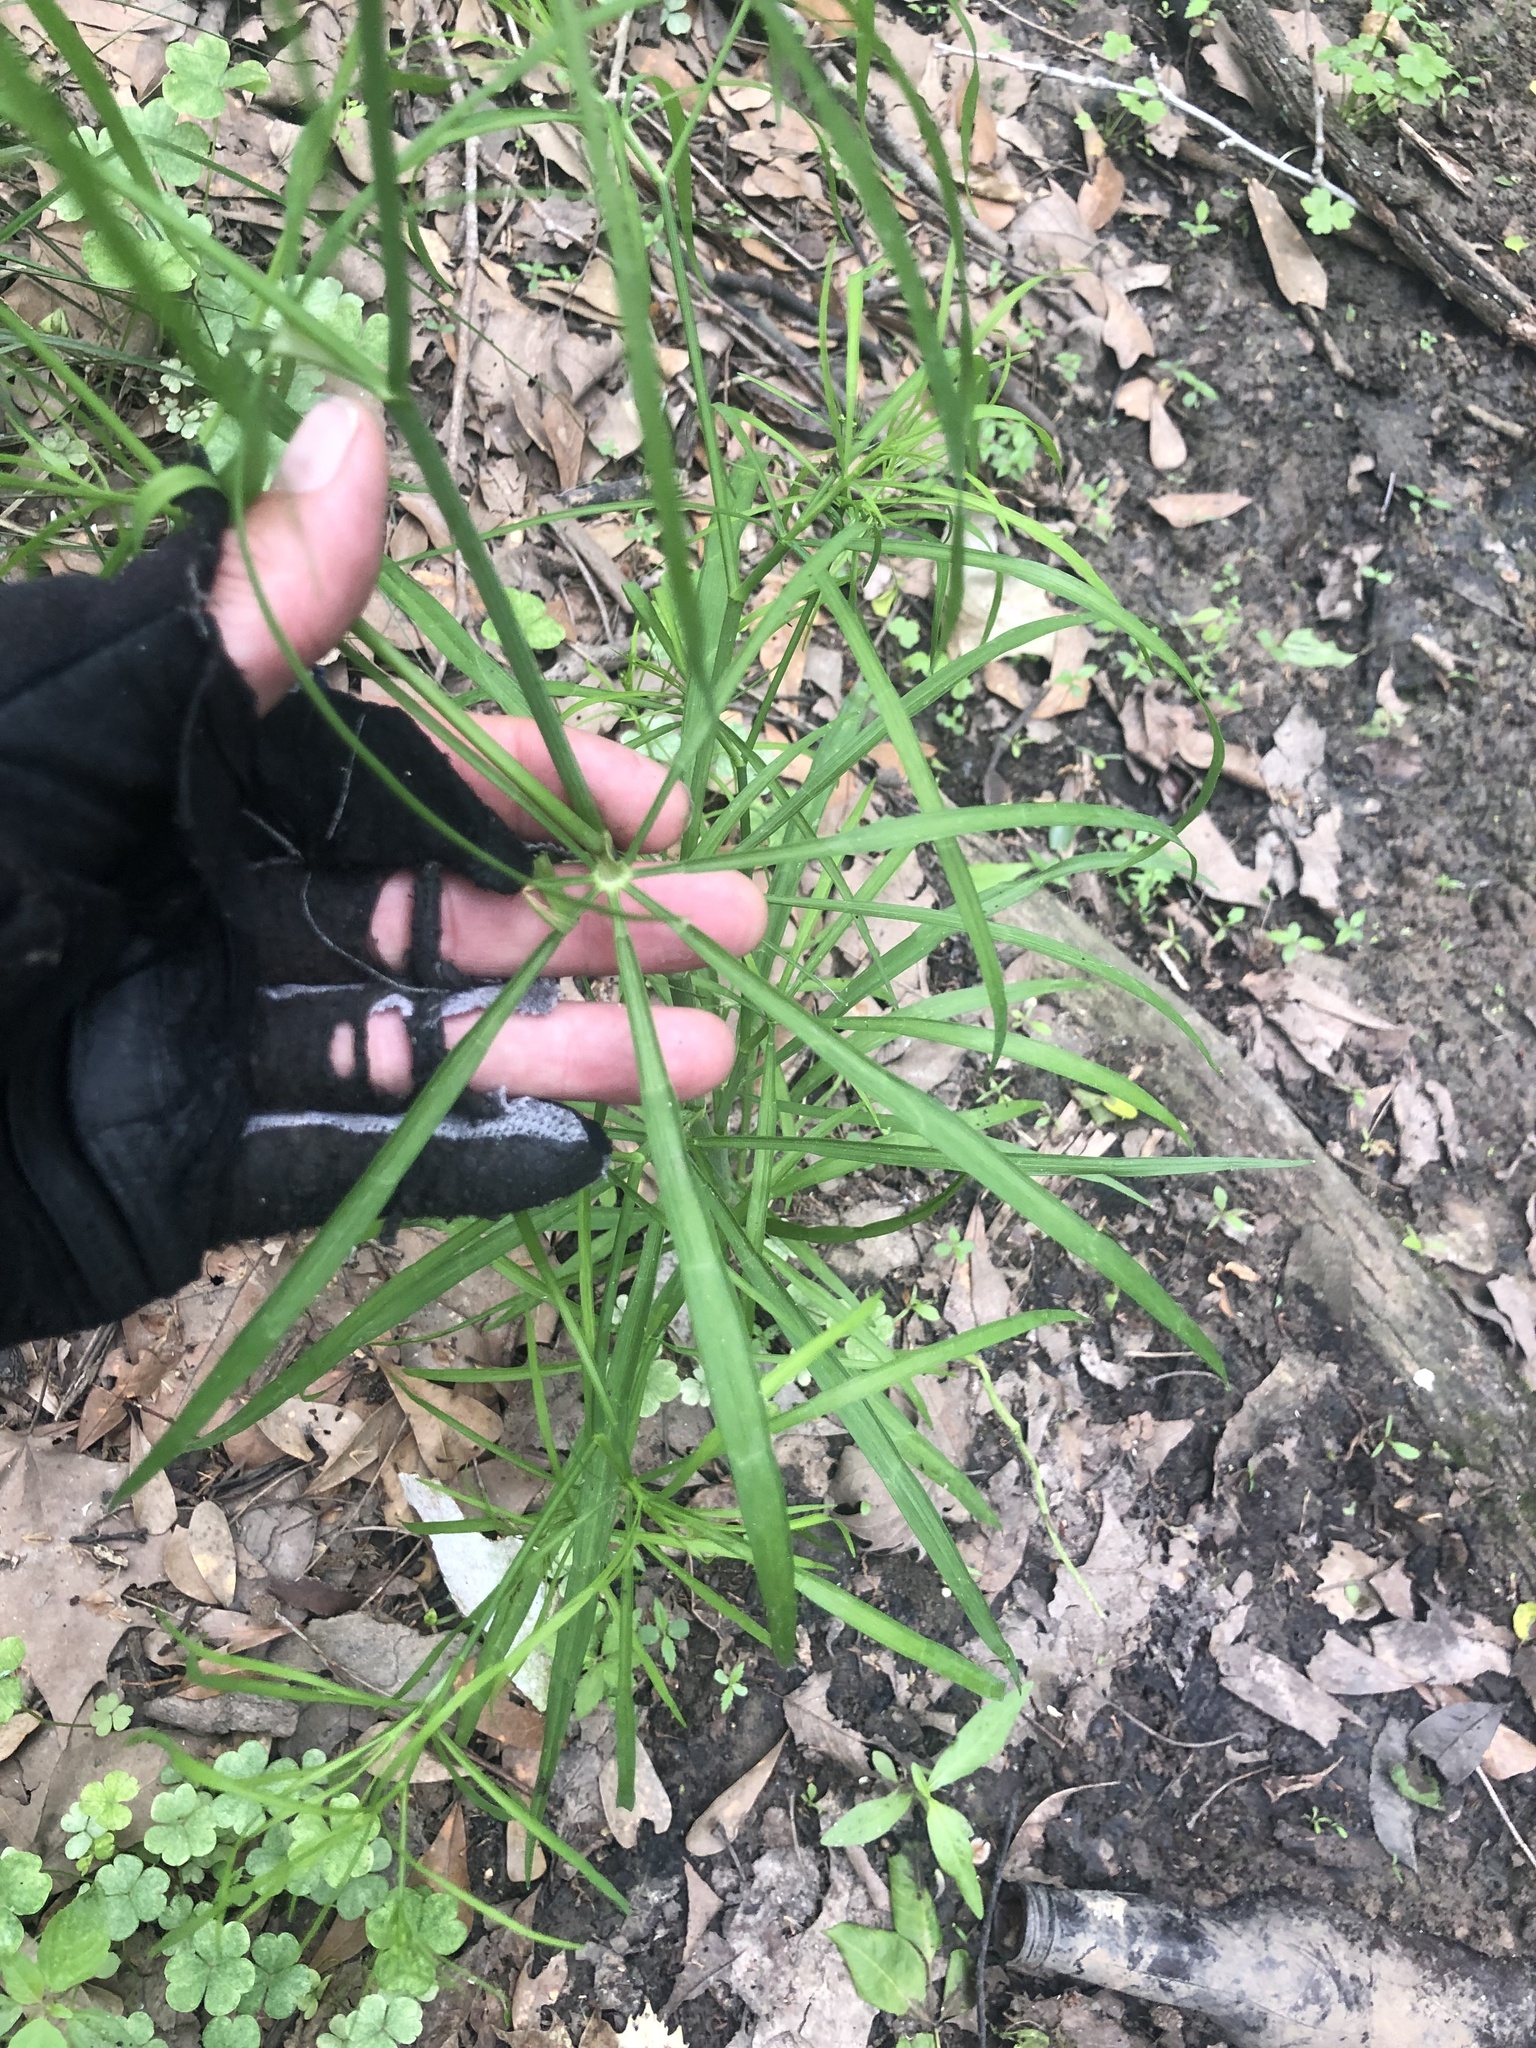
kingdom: Plantae
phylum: Tracheophyta
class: Magnoliopsida
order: Apiales
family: Apiaceae
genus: Cynosciadium
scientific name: Cynosciadium digitatum
